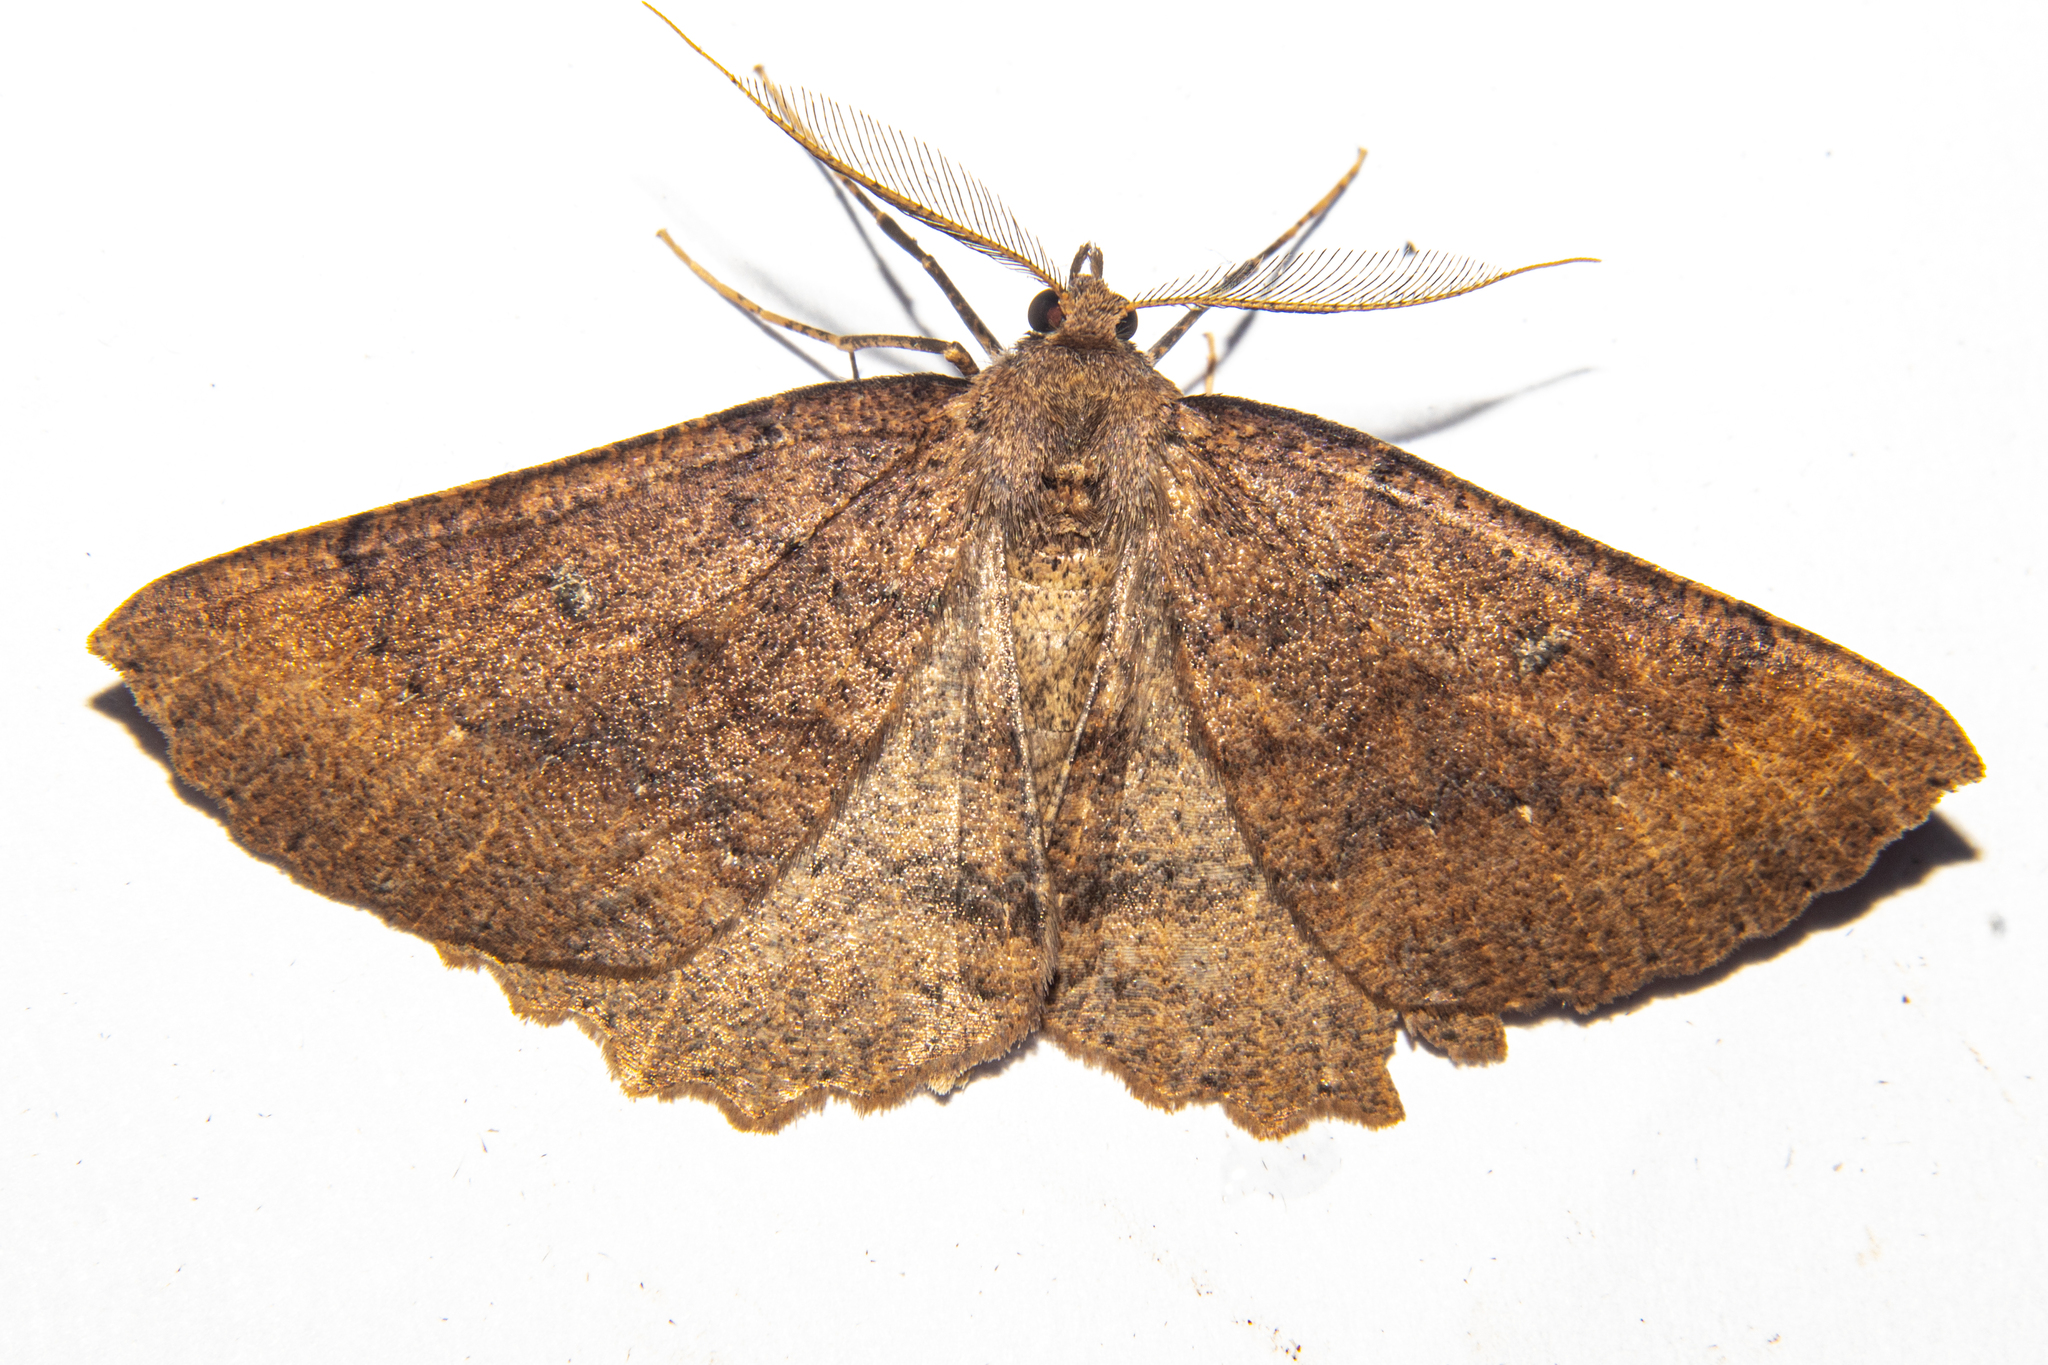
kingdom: Animalia
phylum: Arthropoda
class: Insecta
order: Lepidoptera
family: Geometridae
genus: Cleora
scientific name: Cleora scriptaria
